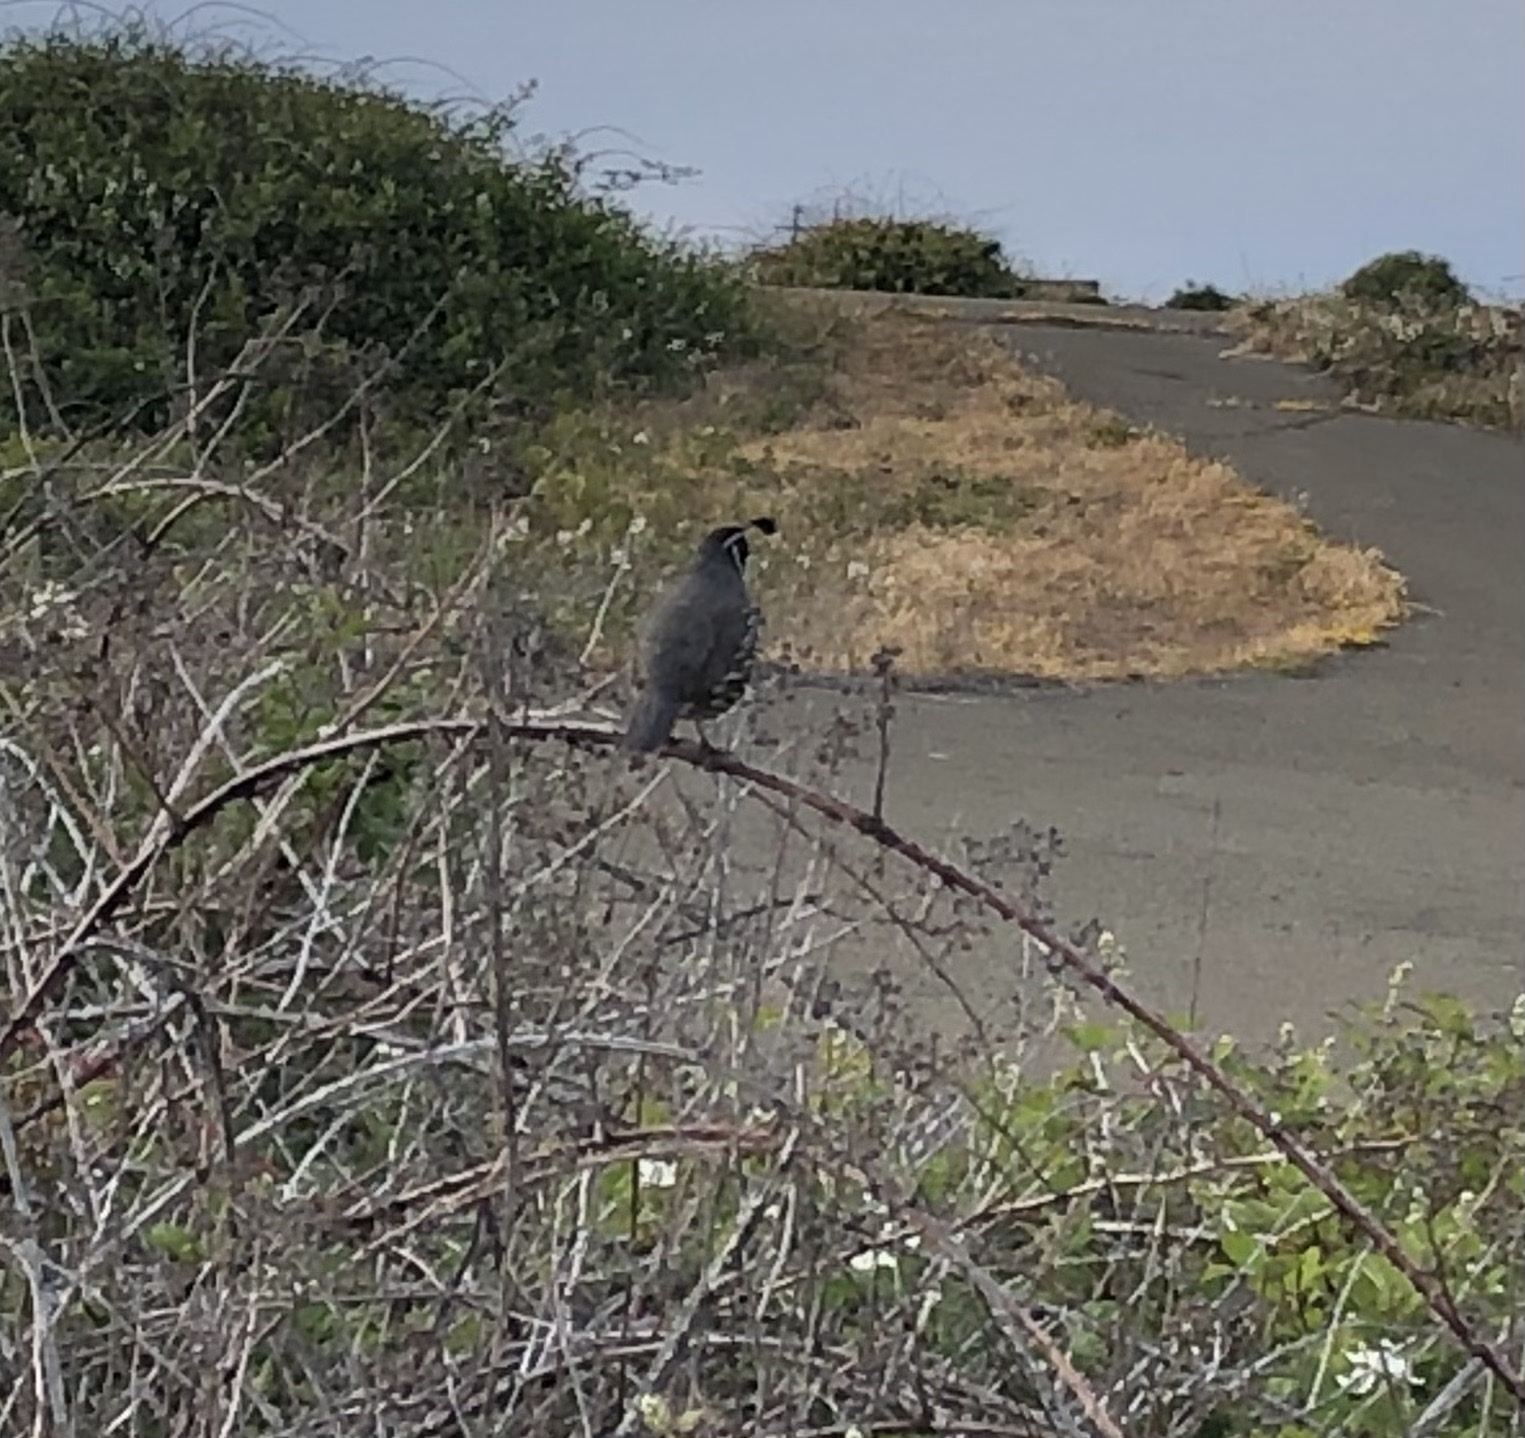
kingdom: Animalia
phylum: Chordata
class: Aves
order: Galliformes
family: Odontophoridae
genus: Callipepla
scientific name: Callipepla californica
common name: California quail
